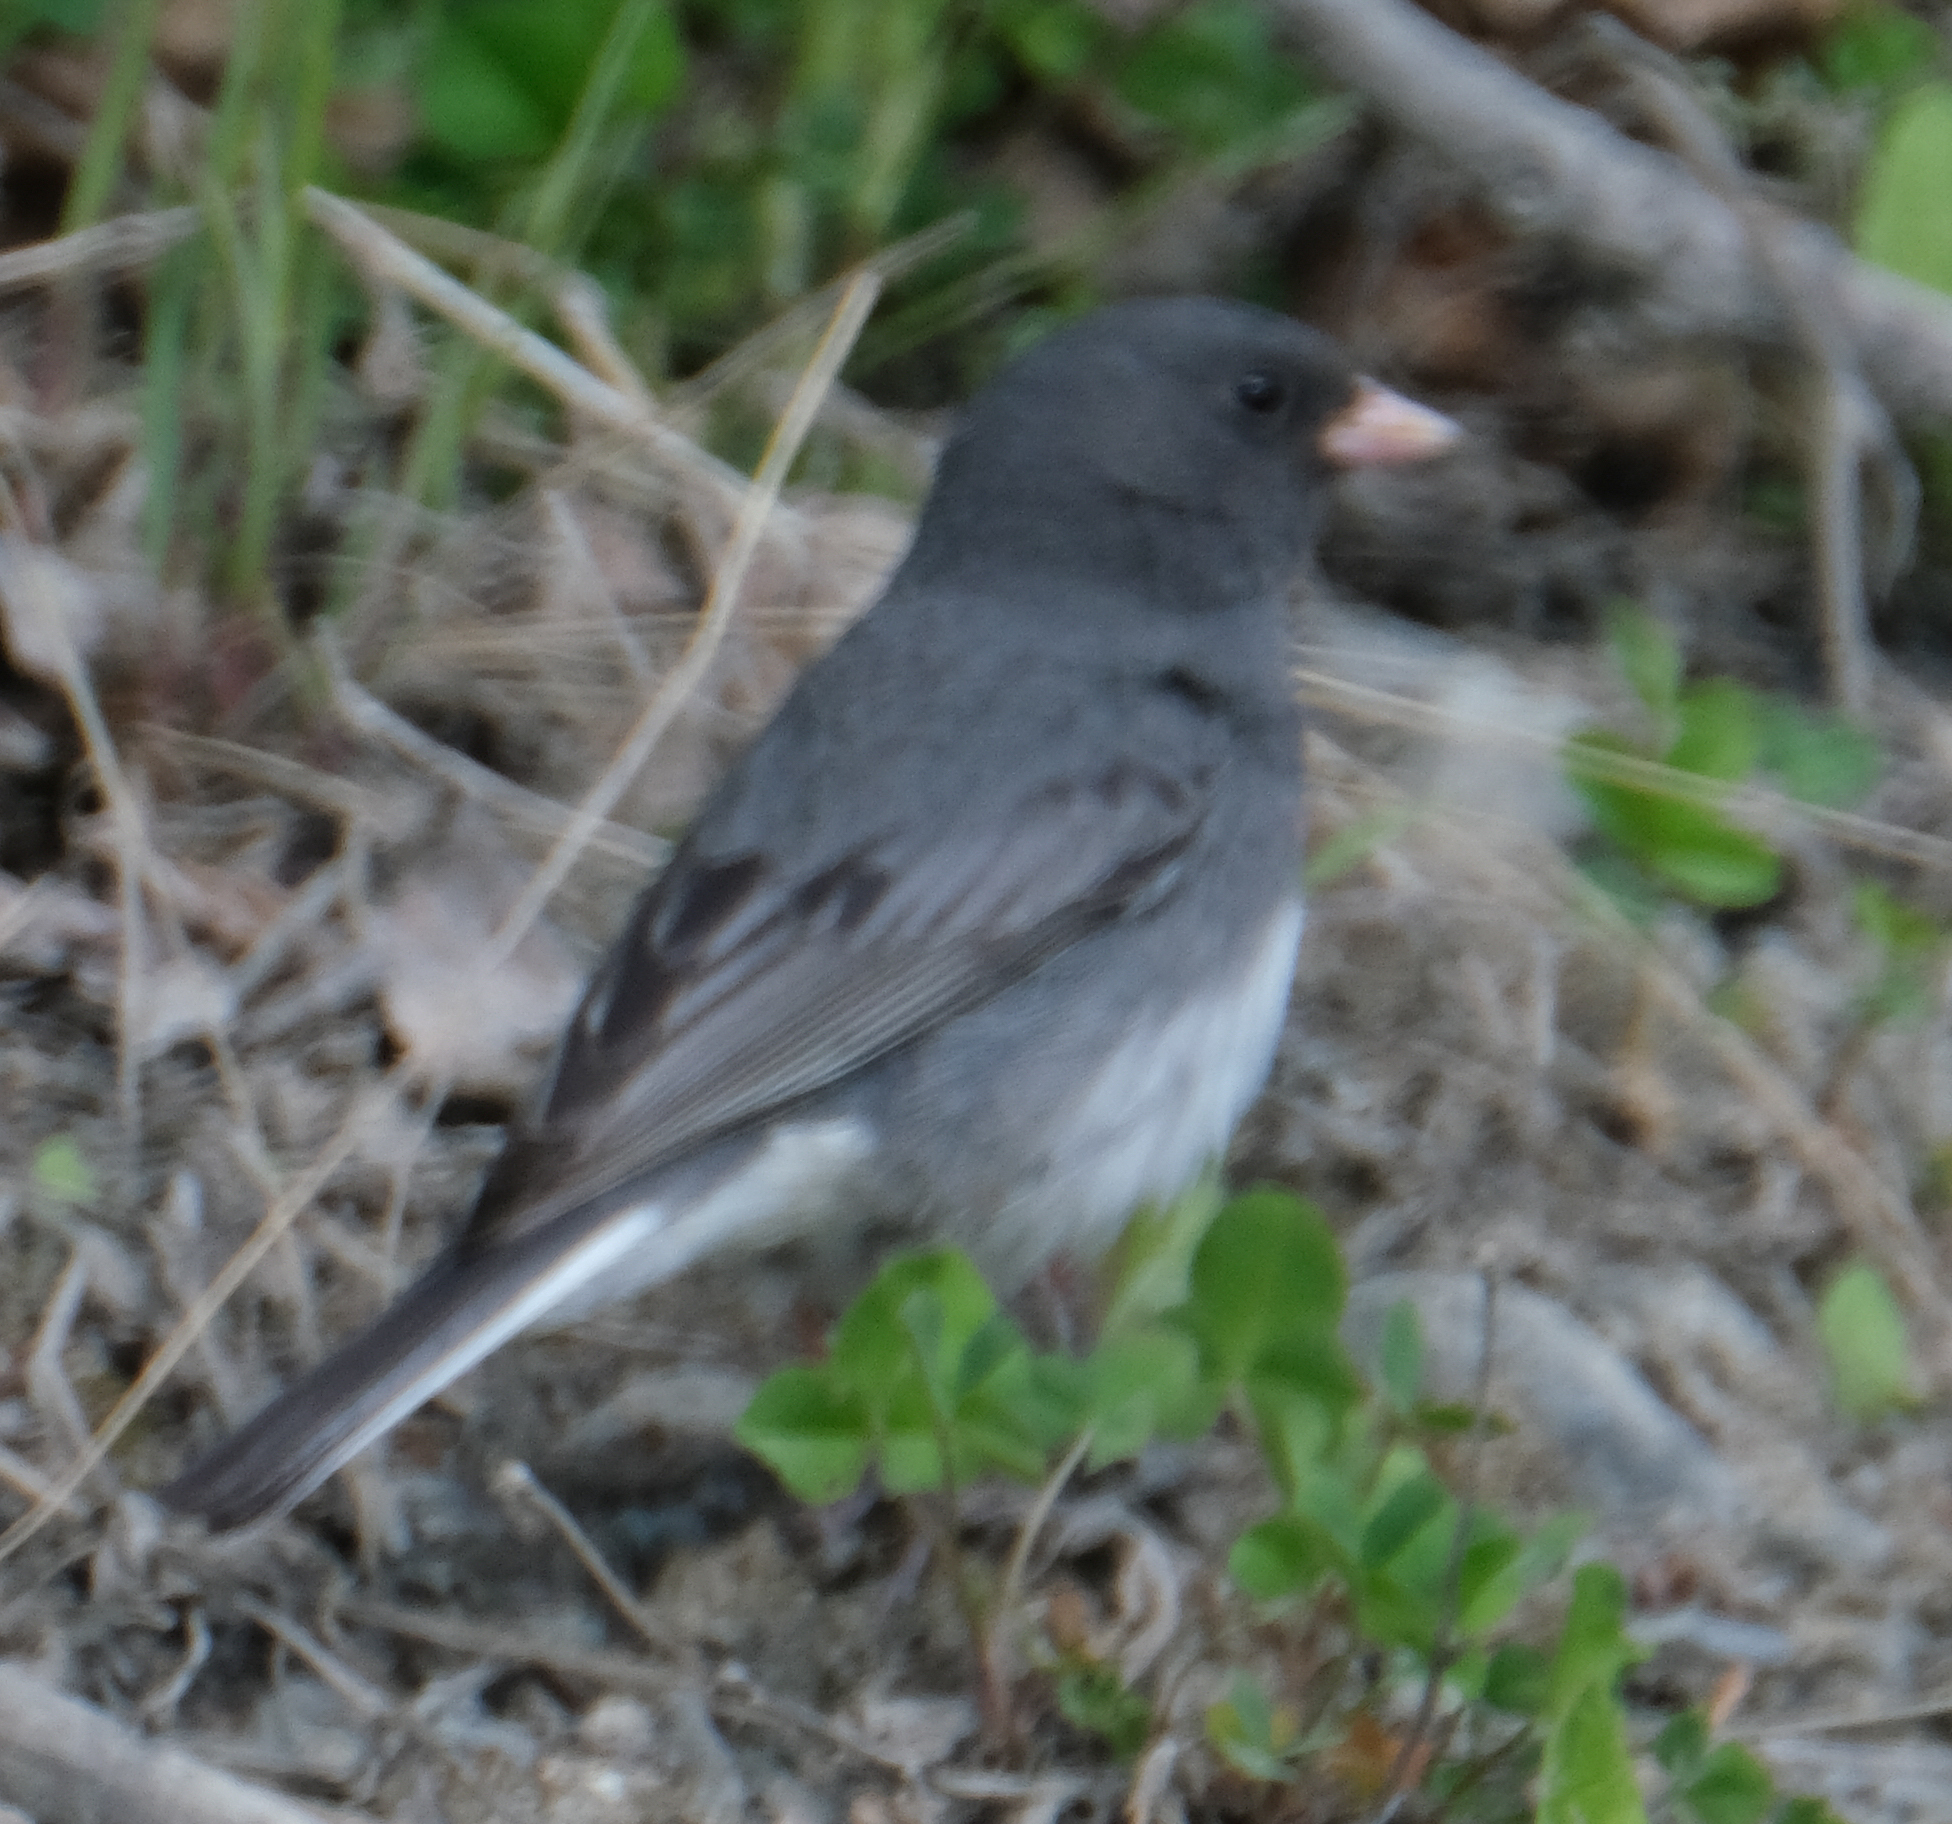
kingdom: Animalia
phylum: Chordata
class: Aves
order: Passeriformes
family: Passerellidae
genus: Junco
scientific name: Junco hyemalis
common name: Dark-eyed junco
